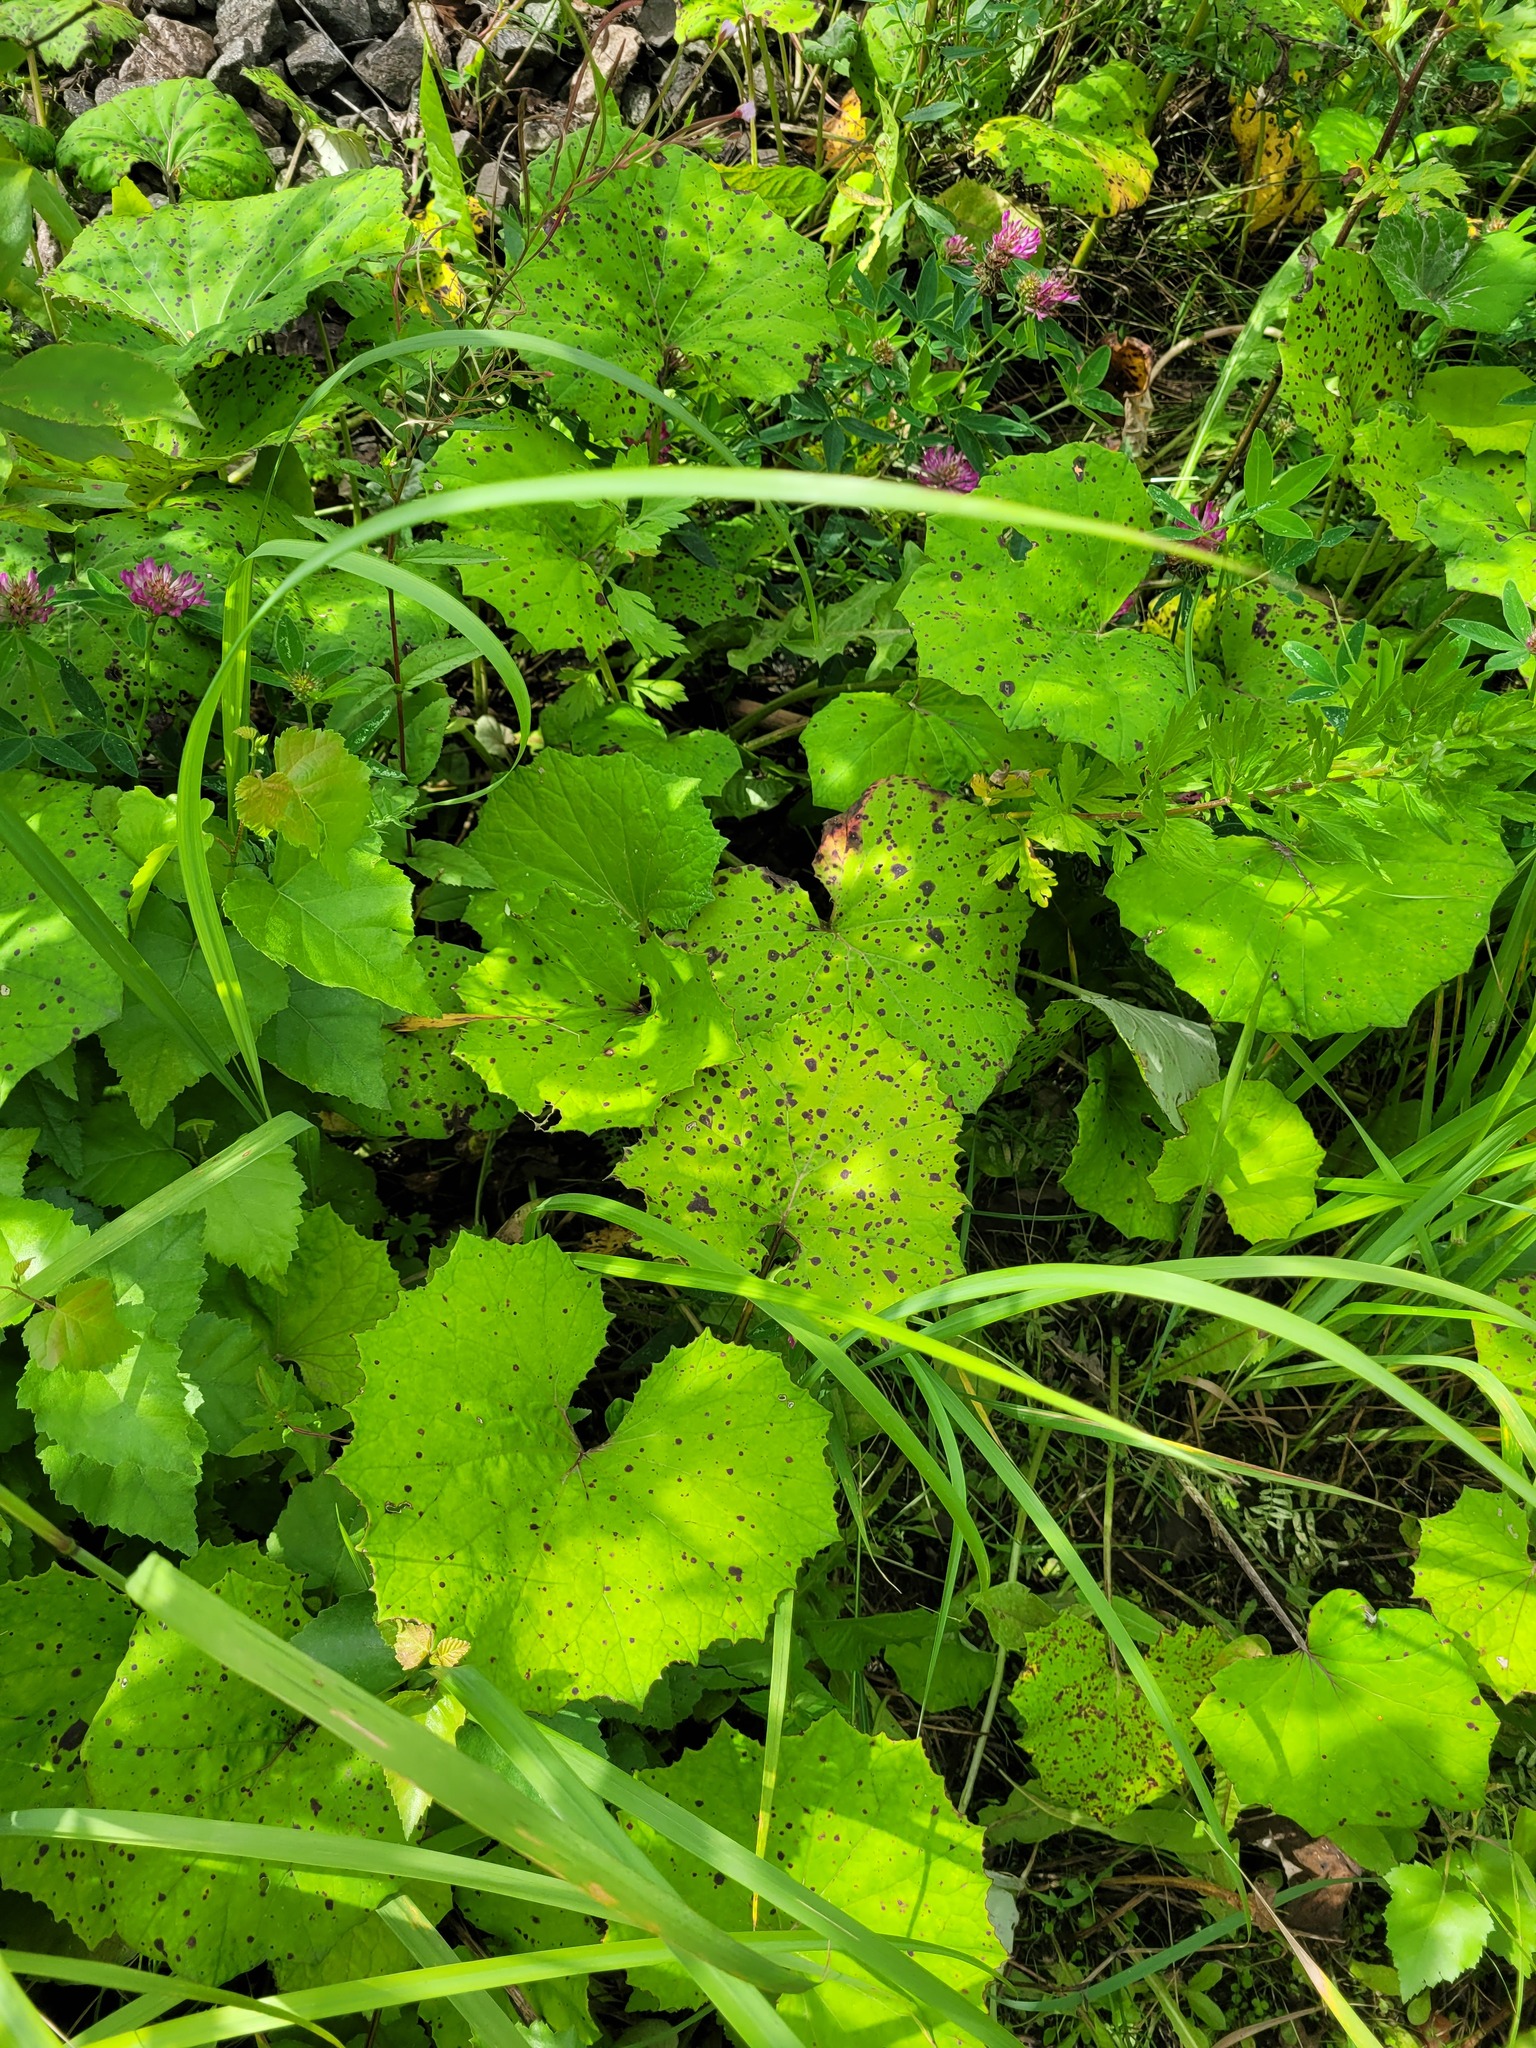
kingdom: Plantae
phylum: Tracheophyta
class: Magnoliopsida
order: Asterales
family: Asteraceae
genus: Tussilago
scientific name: Tussilago farfara
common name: Coltsfoot
